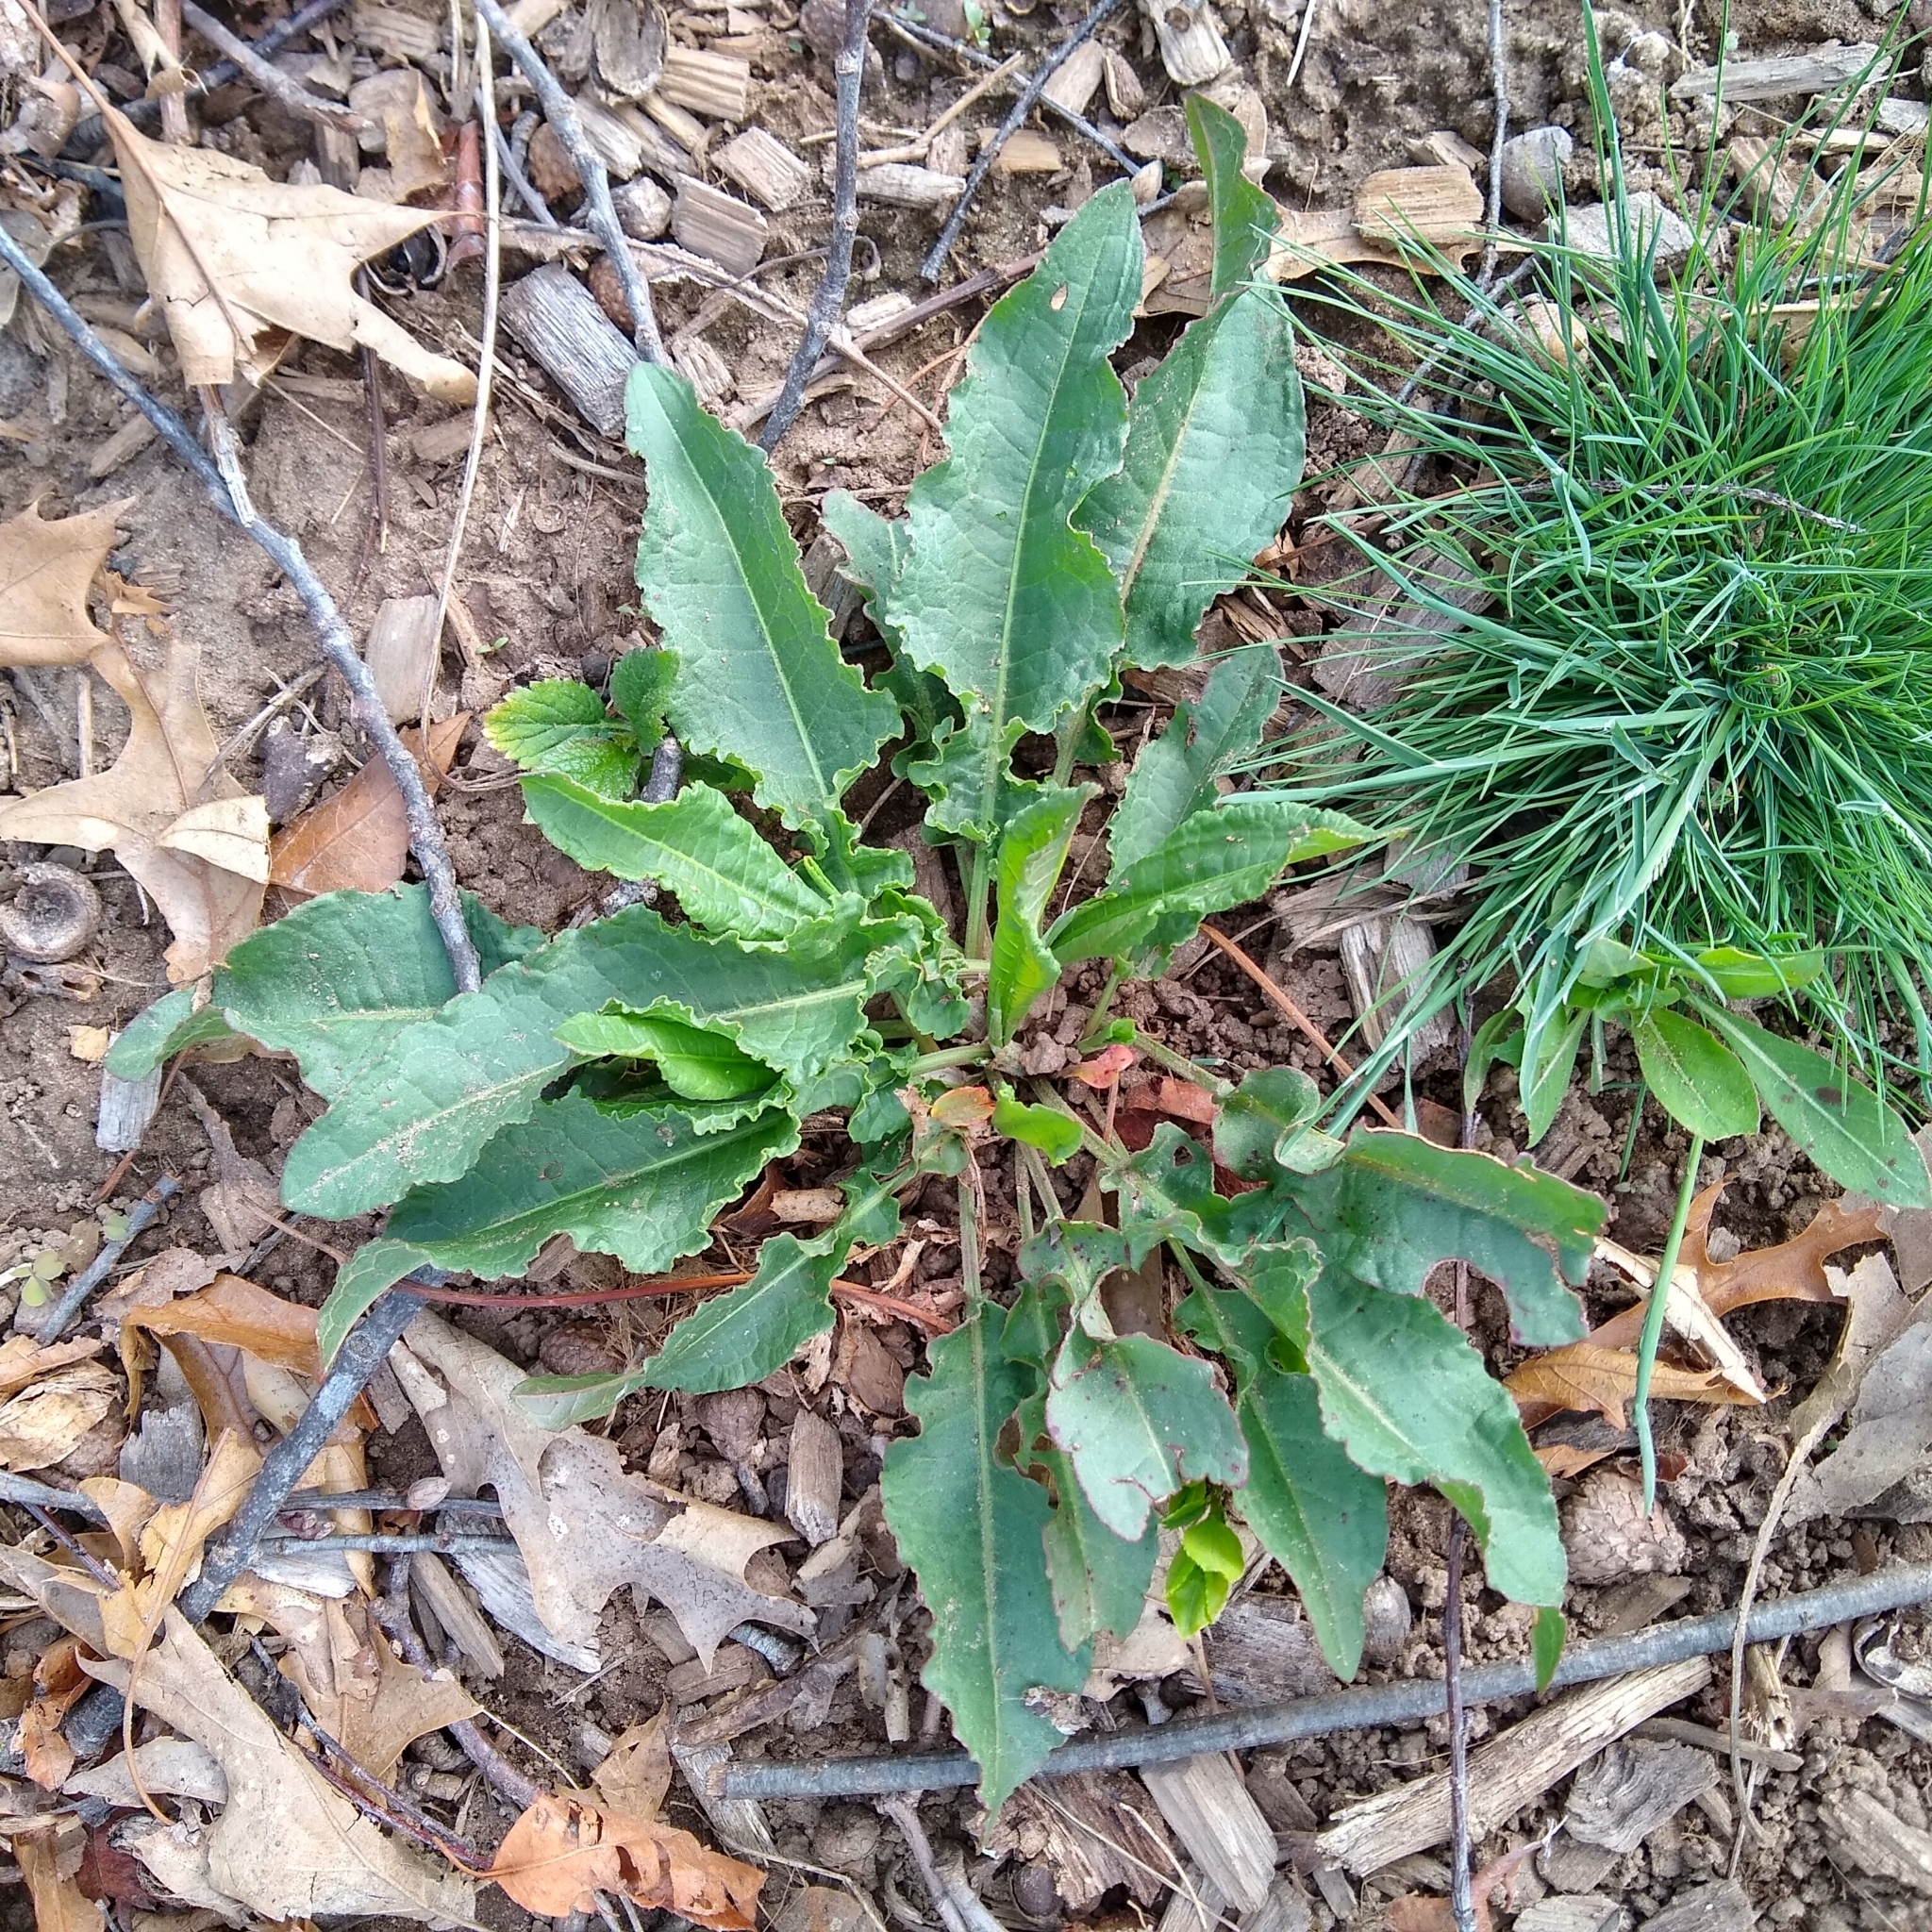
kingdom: Plantae
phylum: Tracheophyta
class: Magnoliopsida
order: Caryophyllales
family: Polygonaceae
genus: Rumex
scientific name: Rumex crispus
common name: Curled dock
